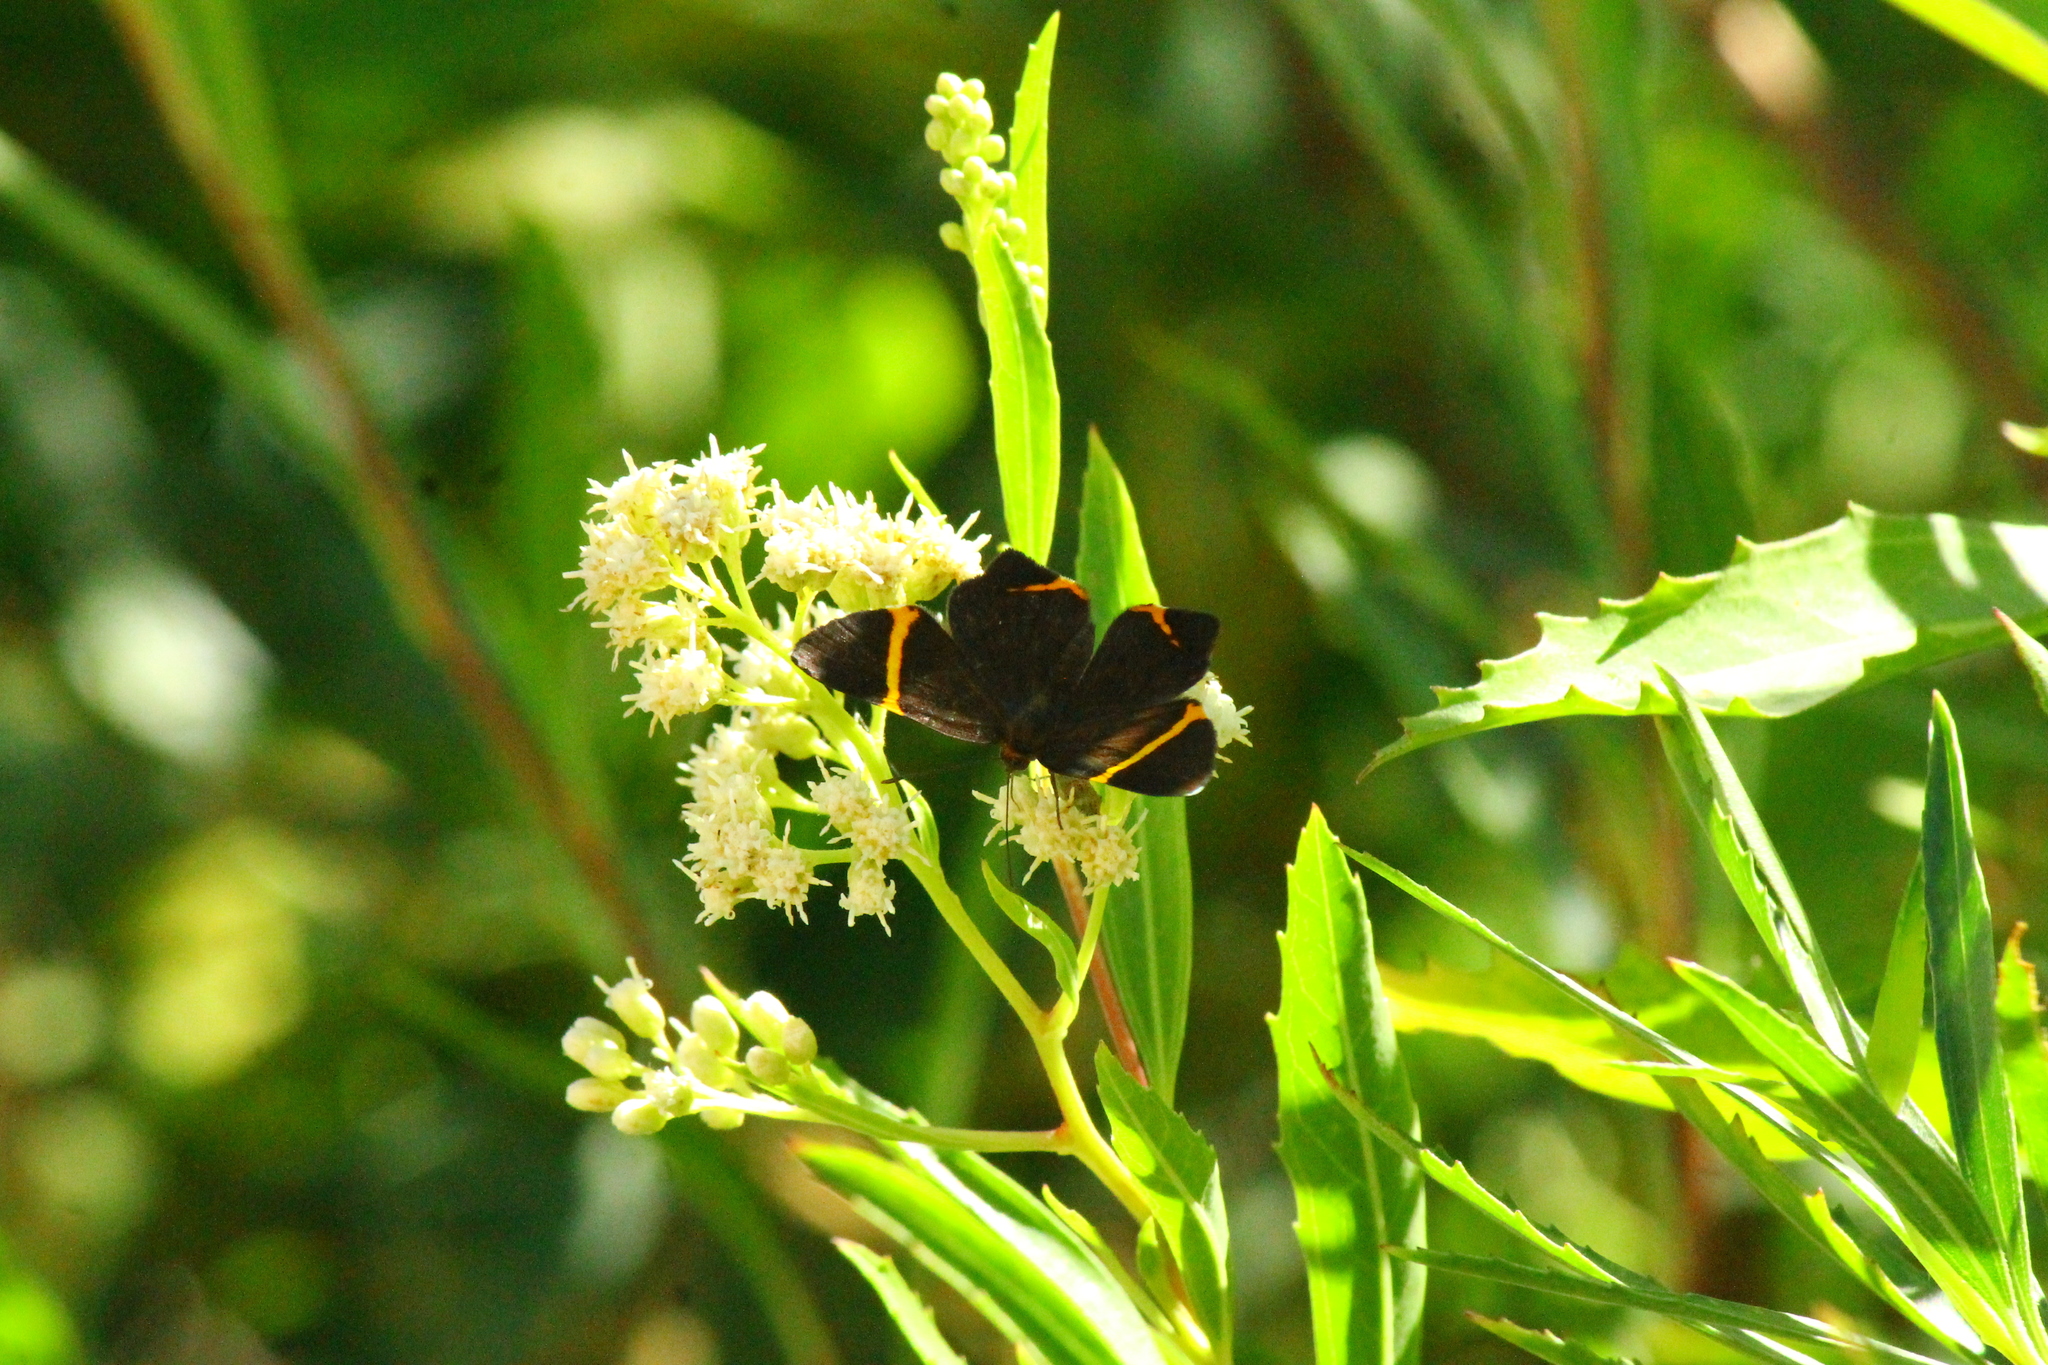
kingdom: Animalia
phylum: Arthropoda
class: Insecta
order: Lepidoptera
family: Riodinidae
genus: Riodina
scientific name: Riodina lysippoides
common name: Little dancer metalmark
